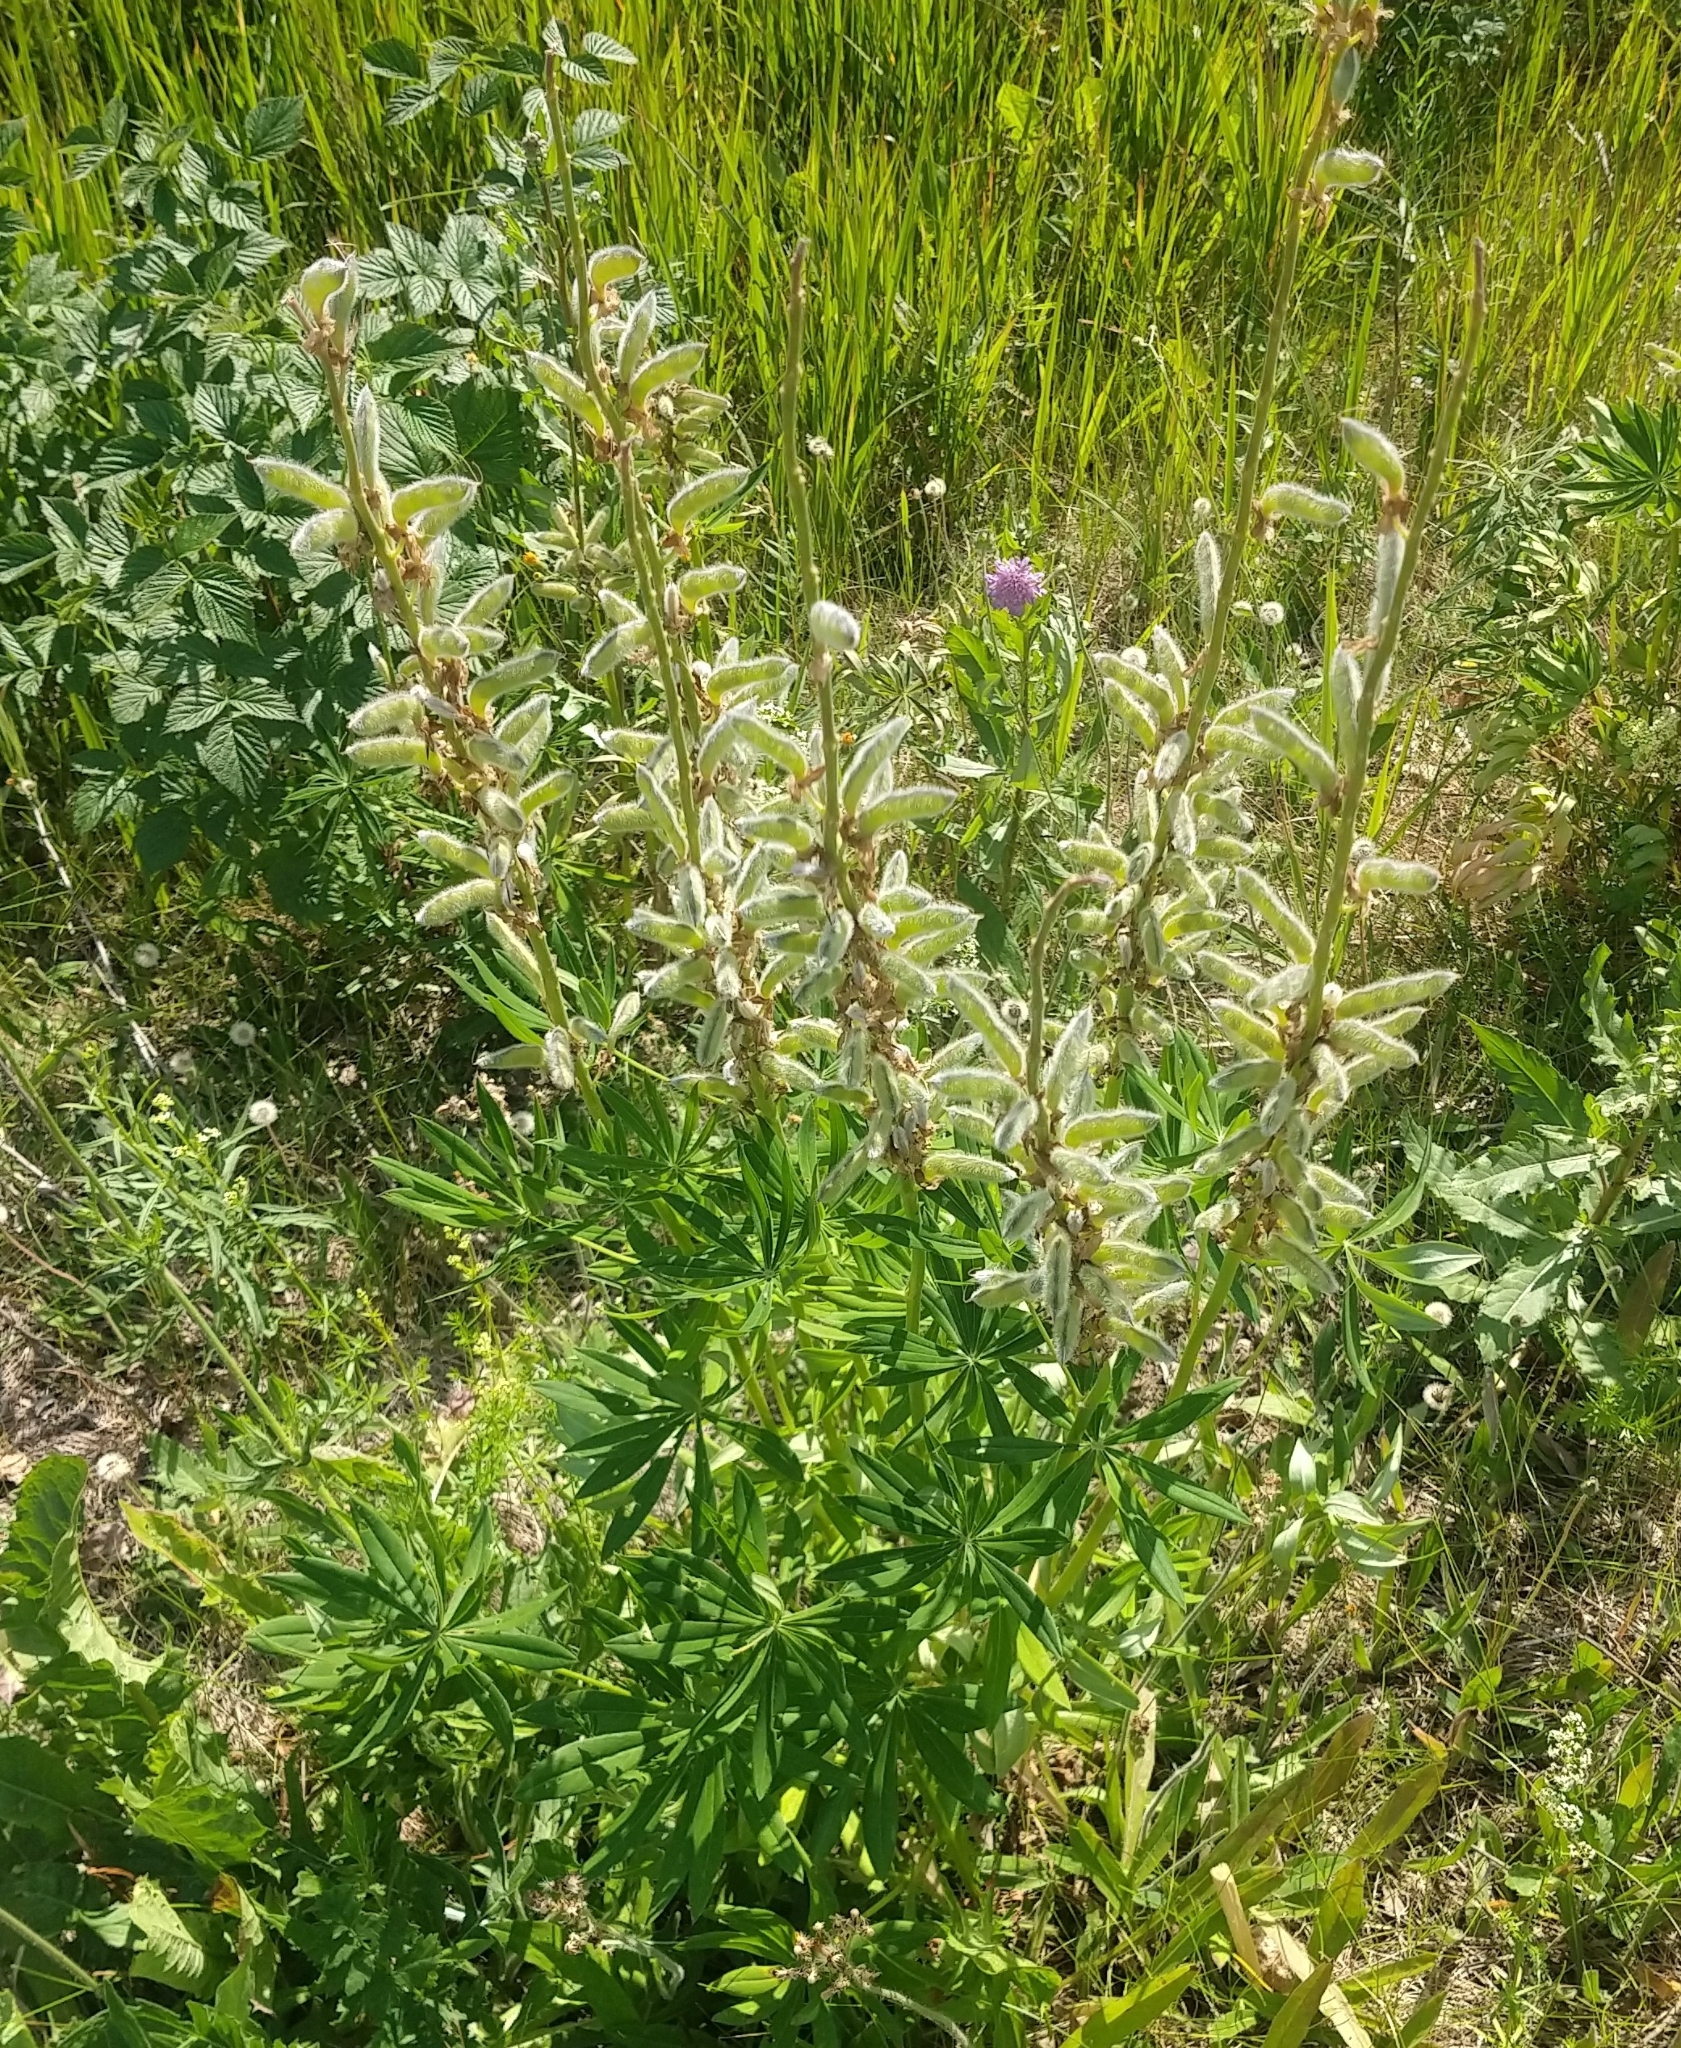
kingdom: Plantae
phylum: Tracheophyta
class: Magnoliopsida
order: Fabales
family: Fabaceae
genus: Lupinus
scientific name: Lupinus polyphyllus
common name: Garden lupin
